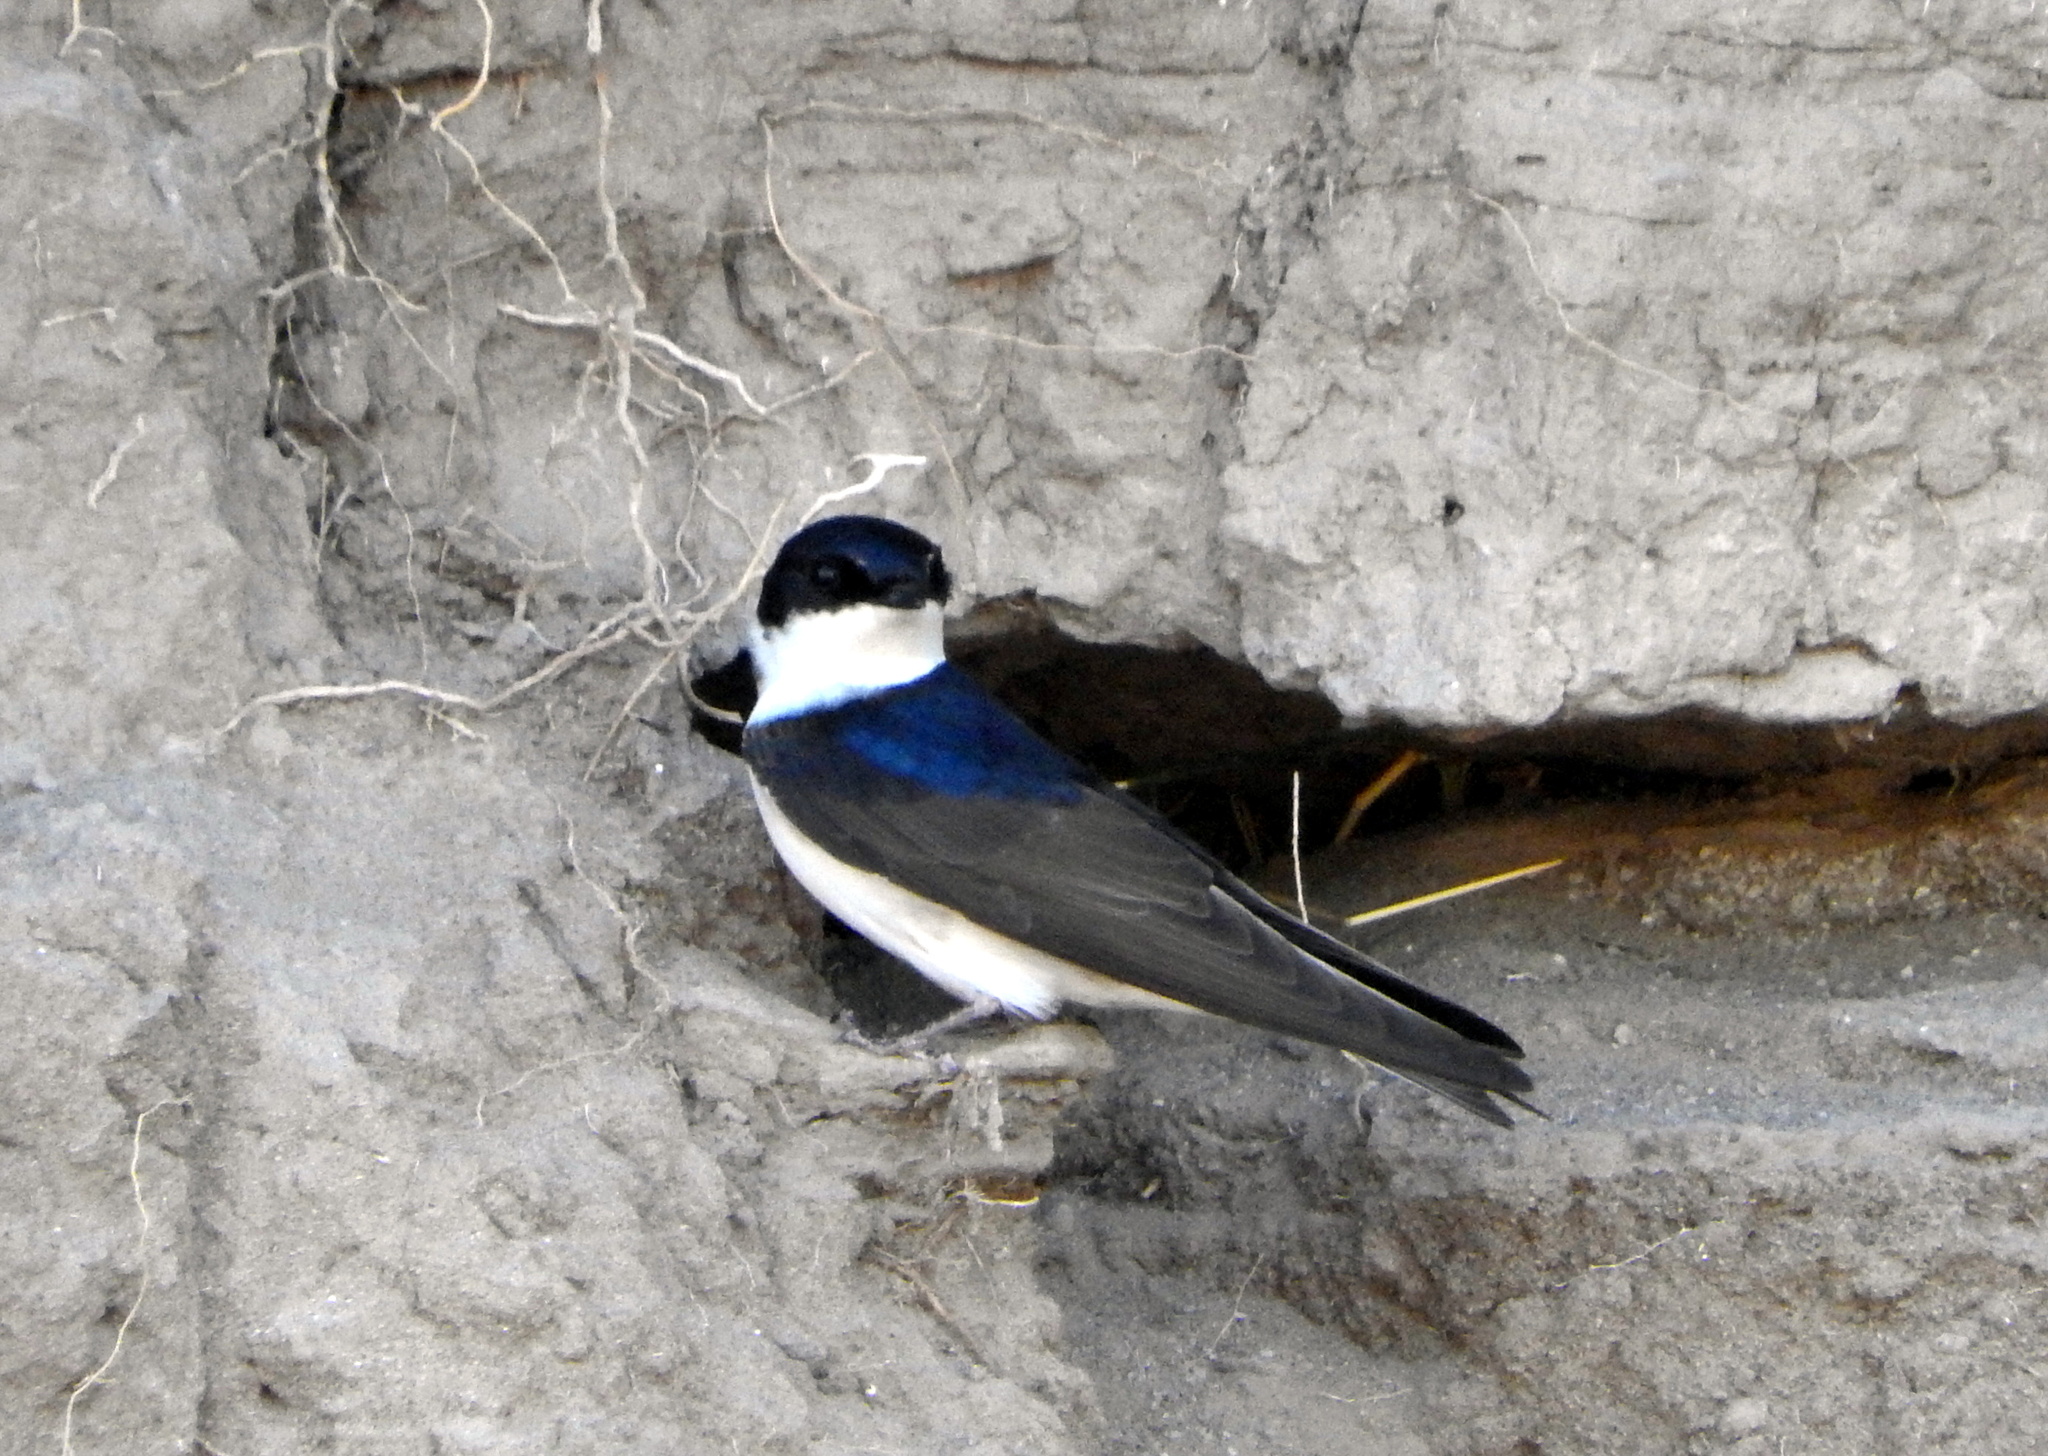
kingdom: Animalia
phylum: Chordata
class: Aves
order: Passeriformes
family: Hirundinidae
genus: Notiochelidon
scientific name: Notiochelidon cyanoleuca
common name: Blue-and-white swallow
